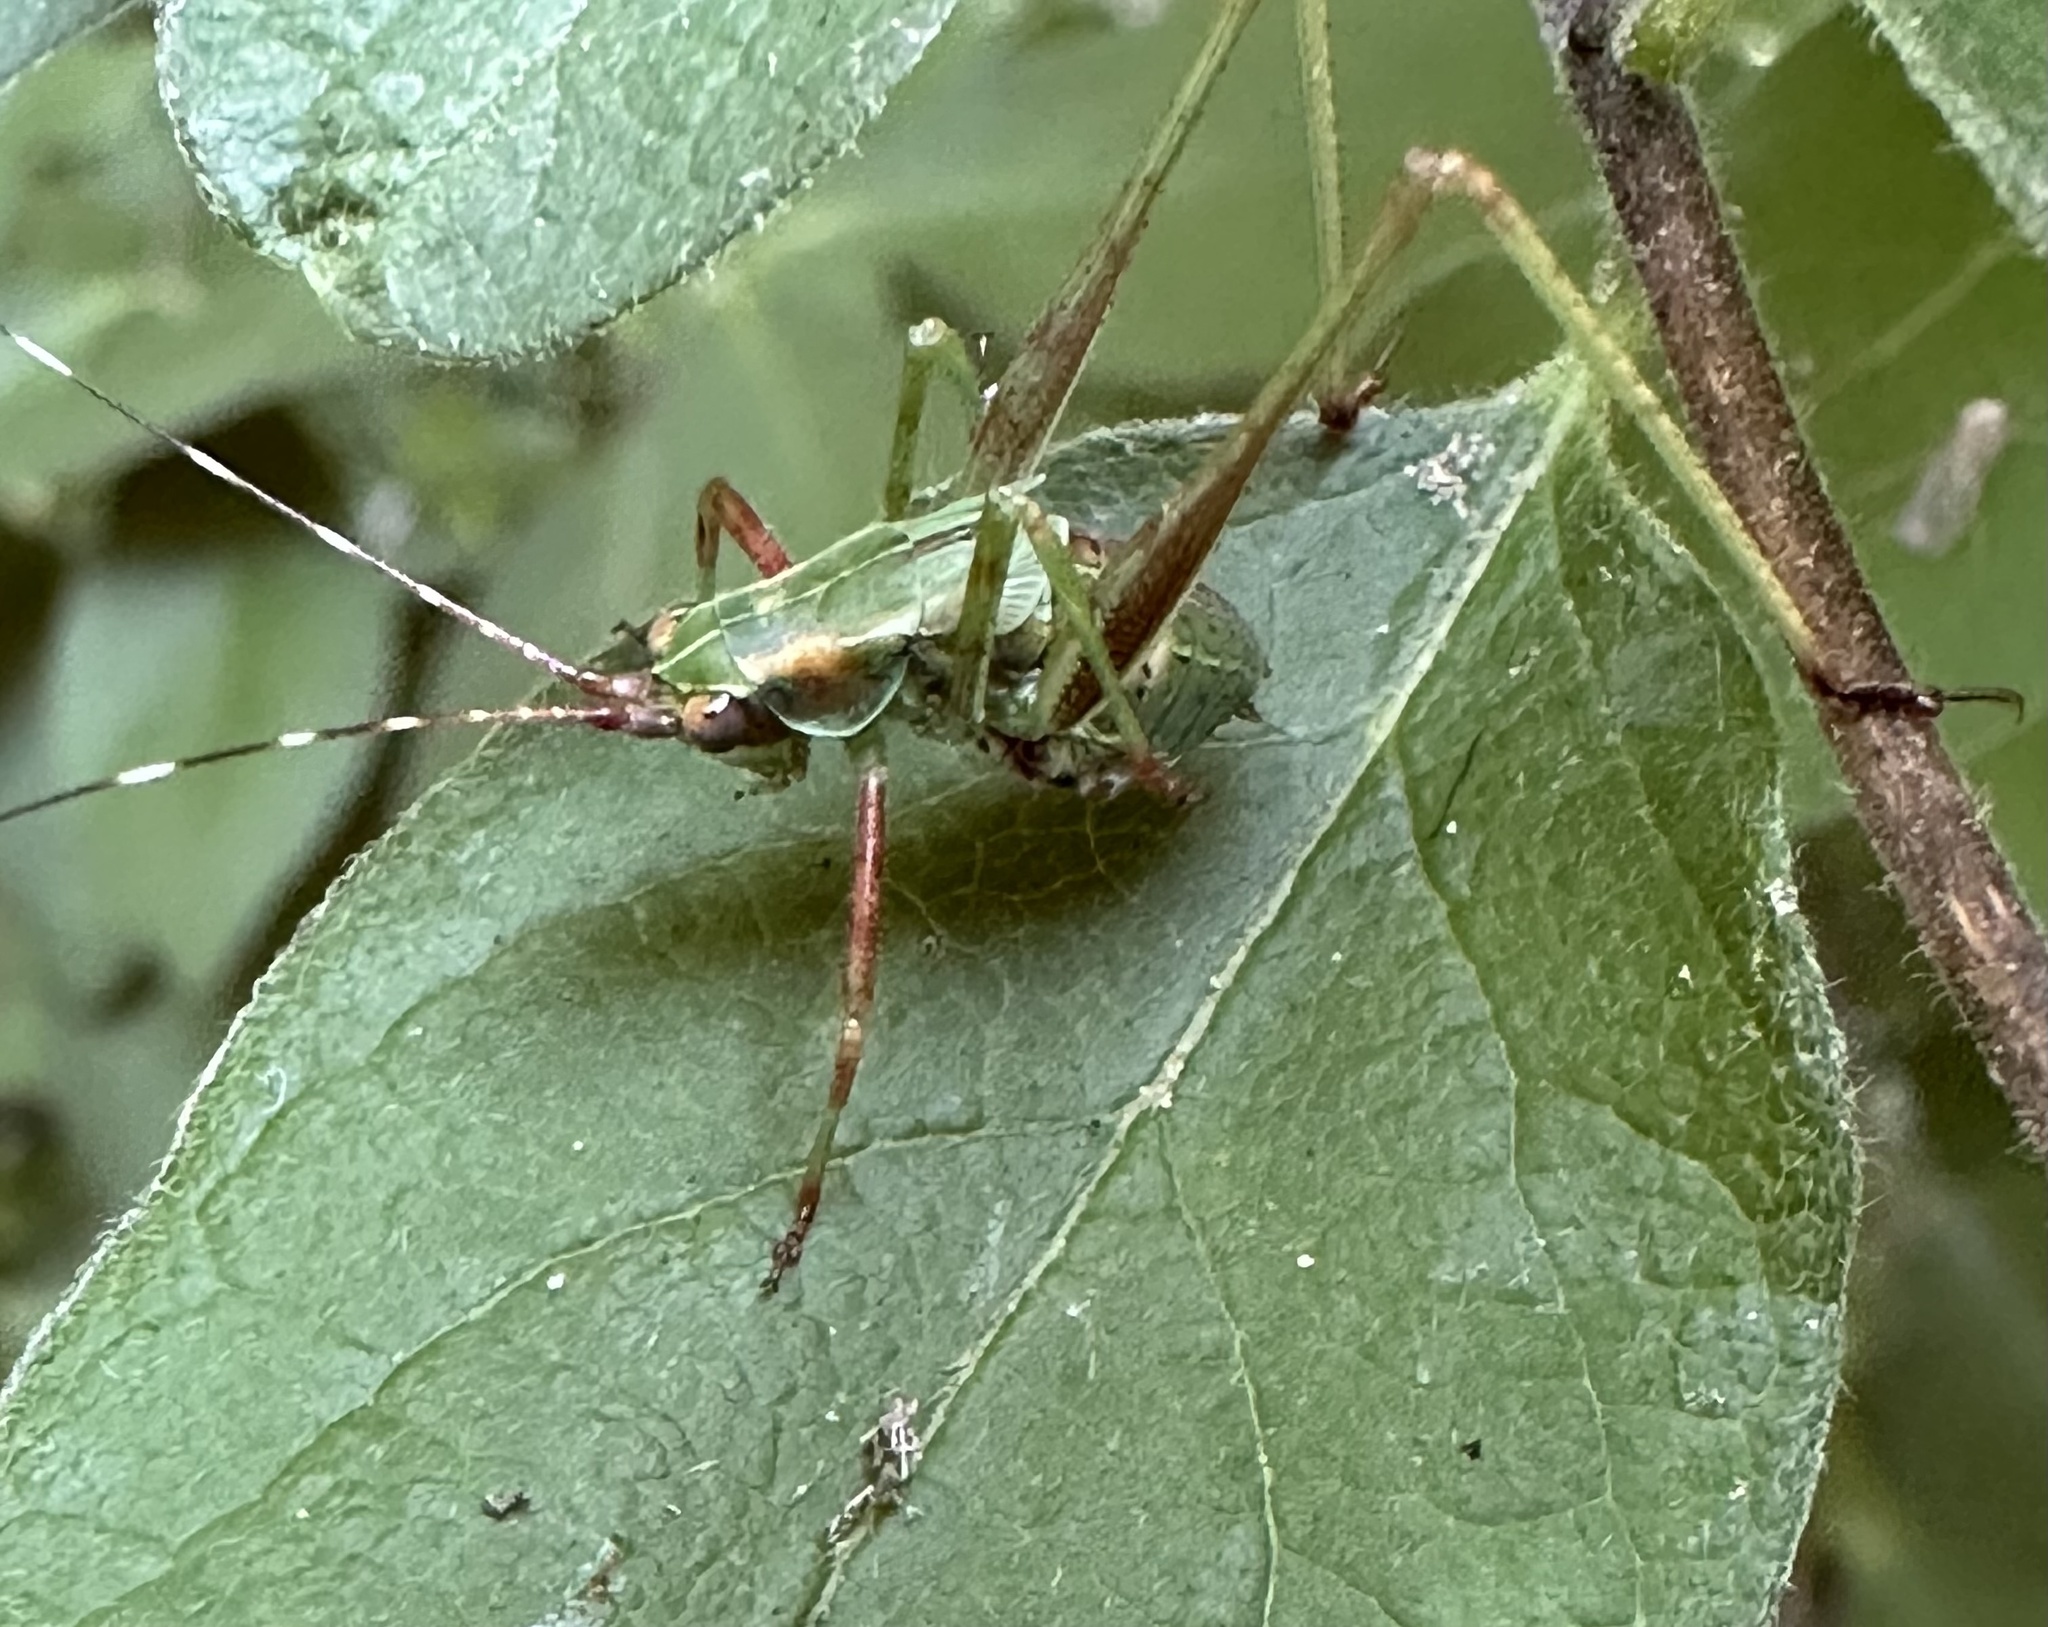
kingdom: Animalia
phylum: Arthropoda
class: Insecta
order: Orthoptera
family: Tettigoniidae
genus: Scudderia
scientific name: Scudderia
